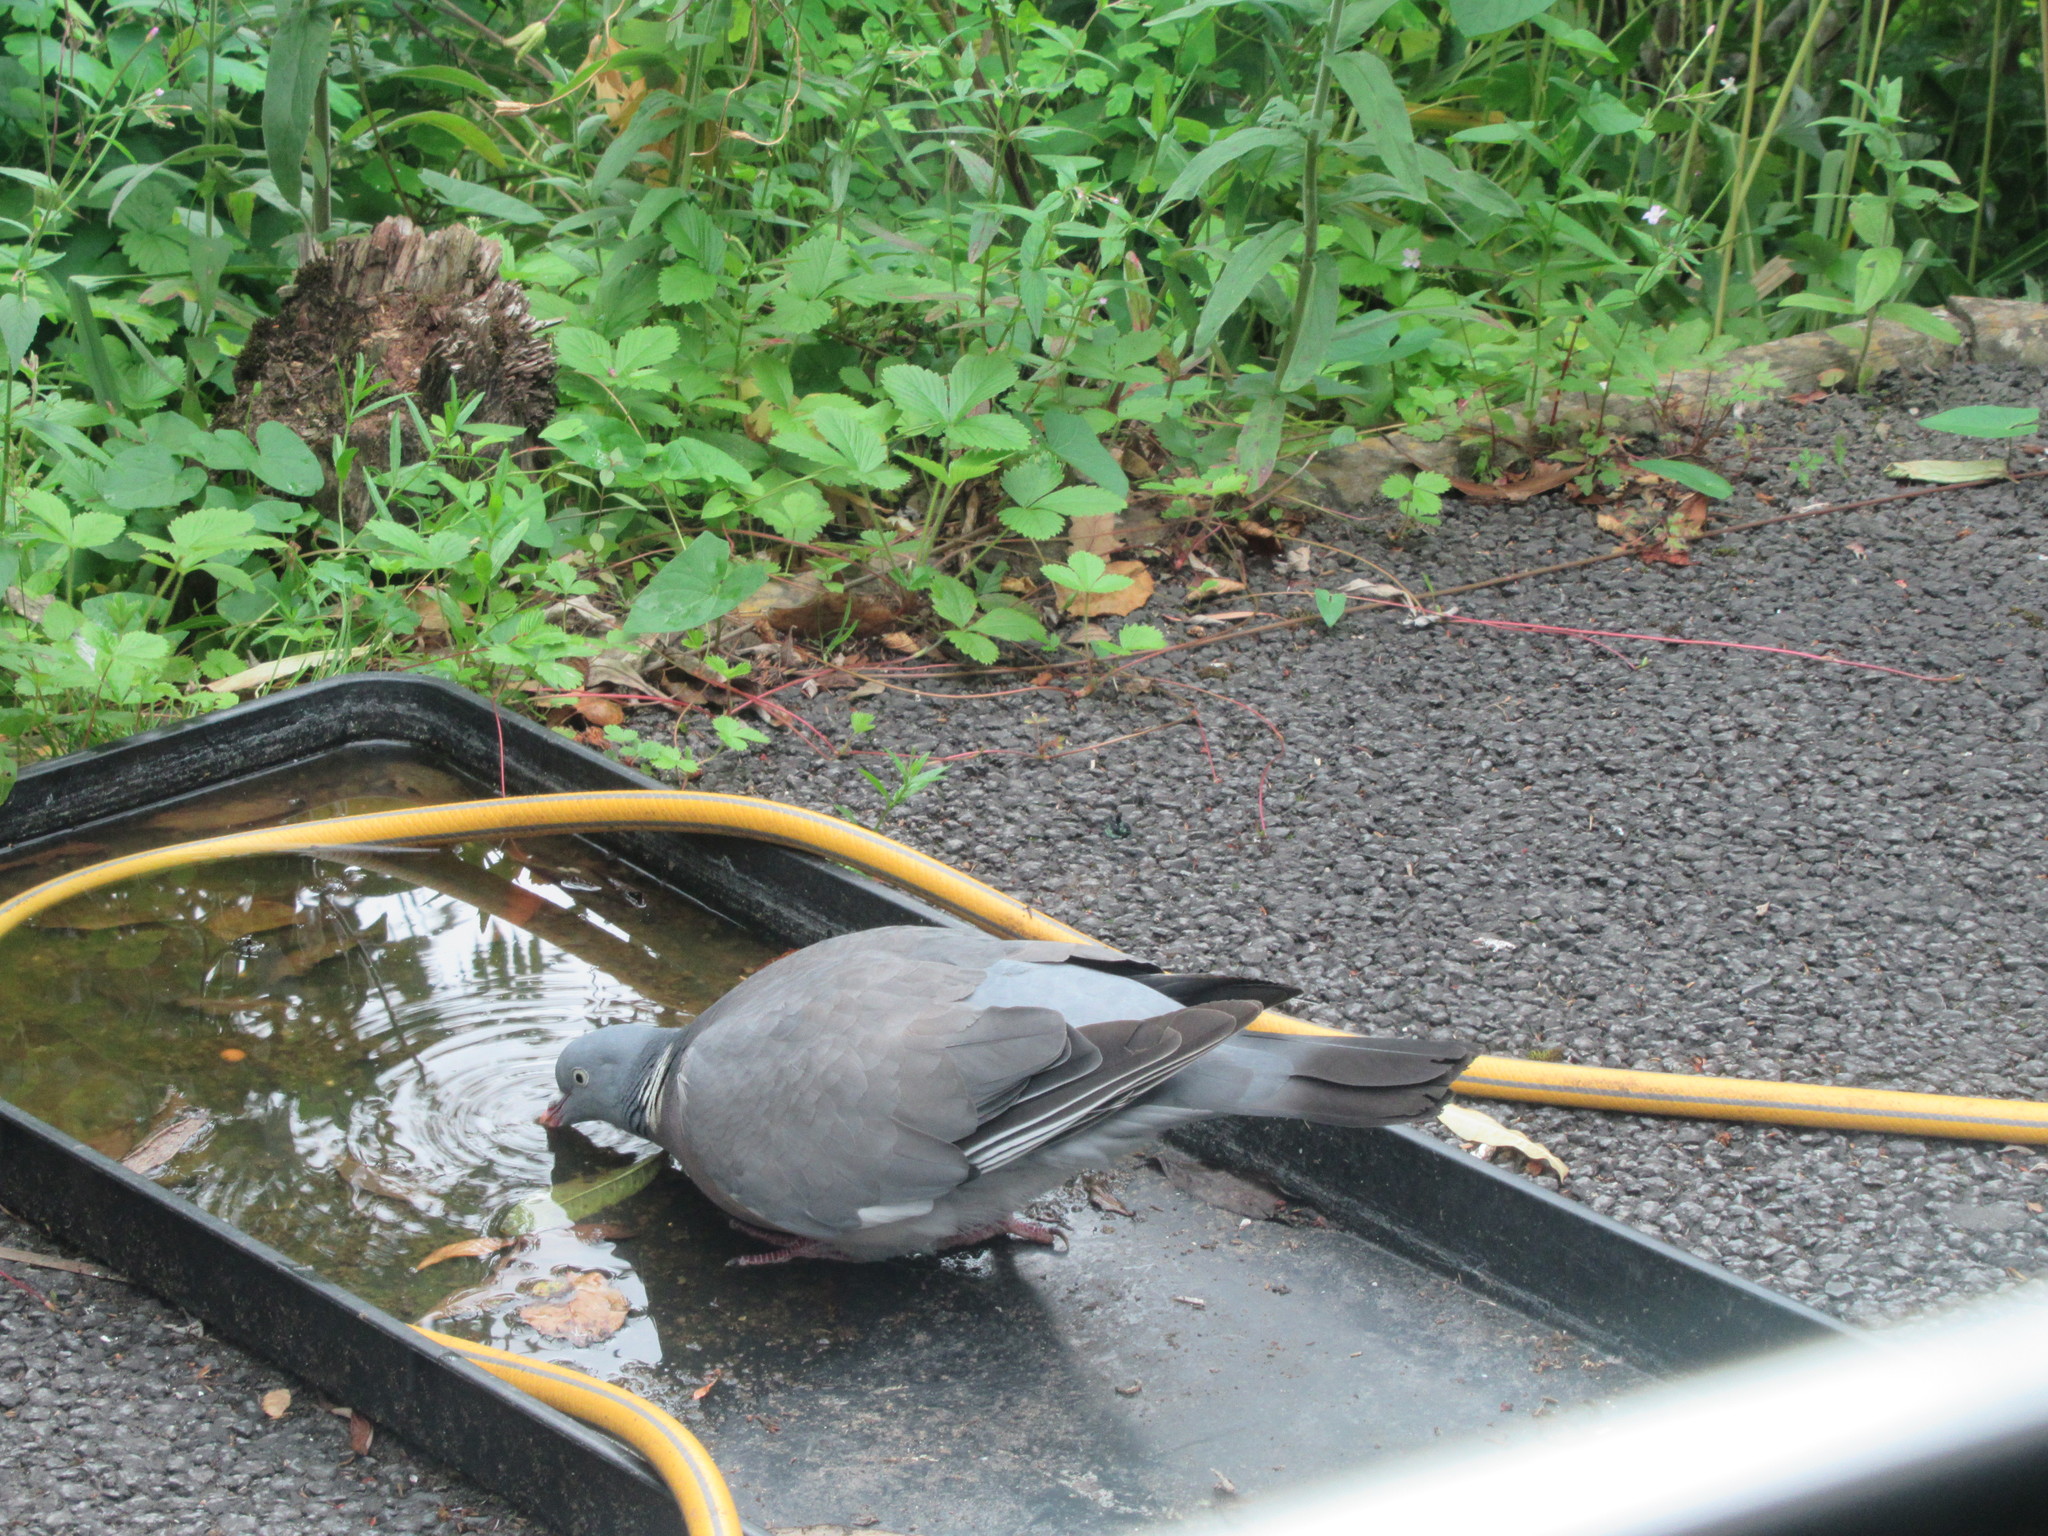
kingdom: Animalia
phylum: Chordata
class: Aves
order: Columbiformes
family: Columbidae
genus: Columba
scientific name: Columba palumbus
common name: Common wood pigeon
